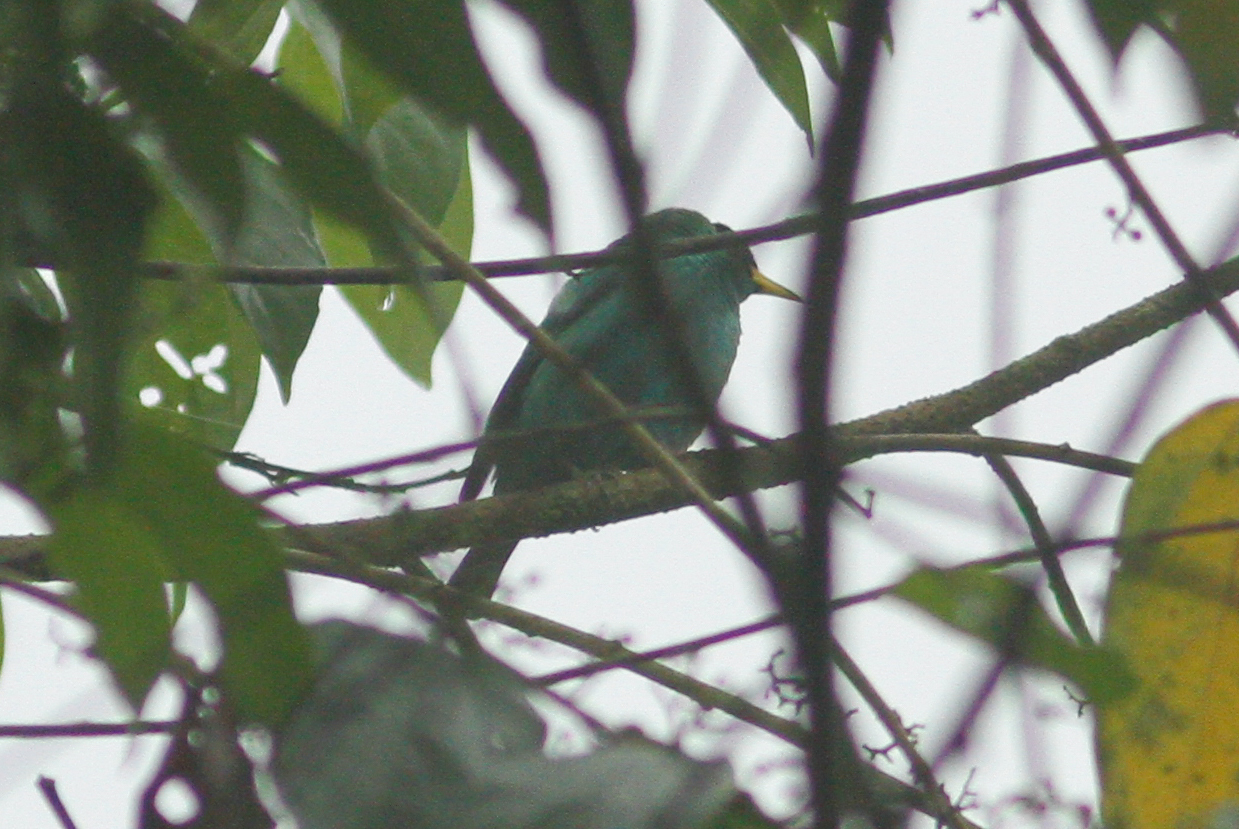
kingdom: Animalia
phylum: Chordata
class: Aves
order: Passeriformes
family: Thraupidae
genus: Chlorophanes
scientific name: Chlorophanes spiza
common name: Green honeycreeper
